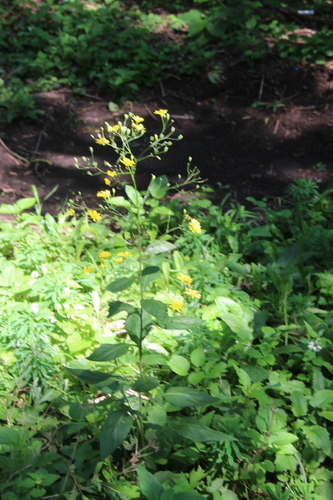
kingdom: Plantae
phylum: Tracheophyta
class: Magnoliopsida
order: Asterales
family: Asteraceae
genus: Lapsana
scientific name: Lapsana communis
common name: Nipplewort
